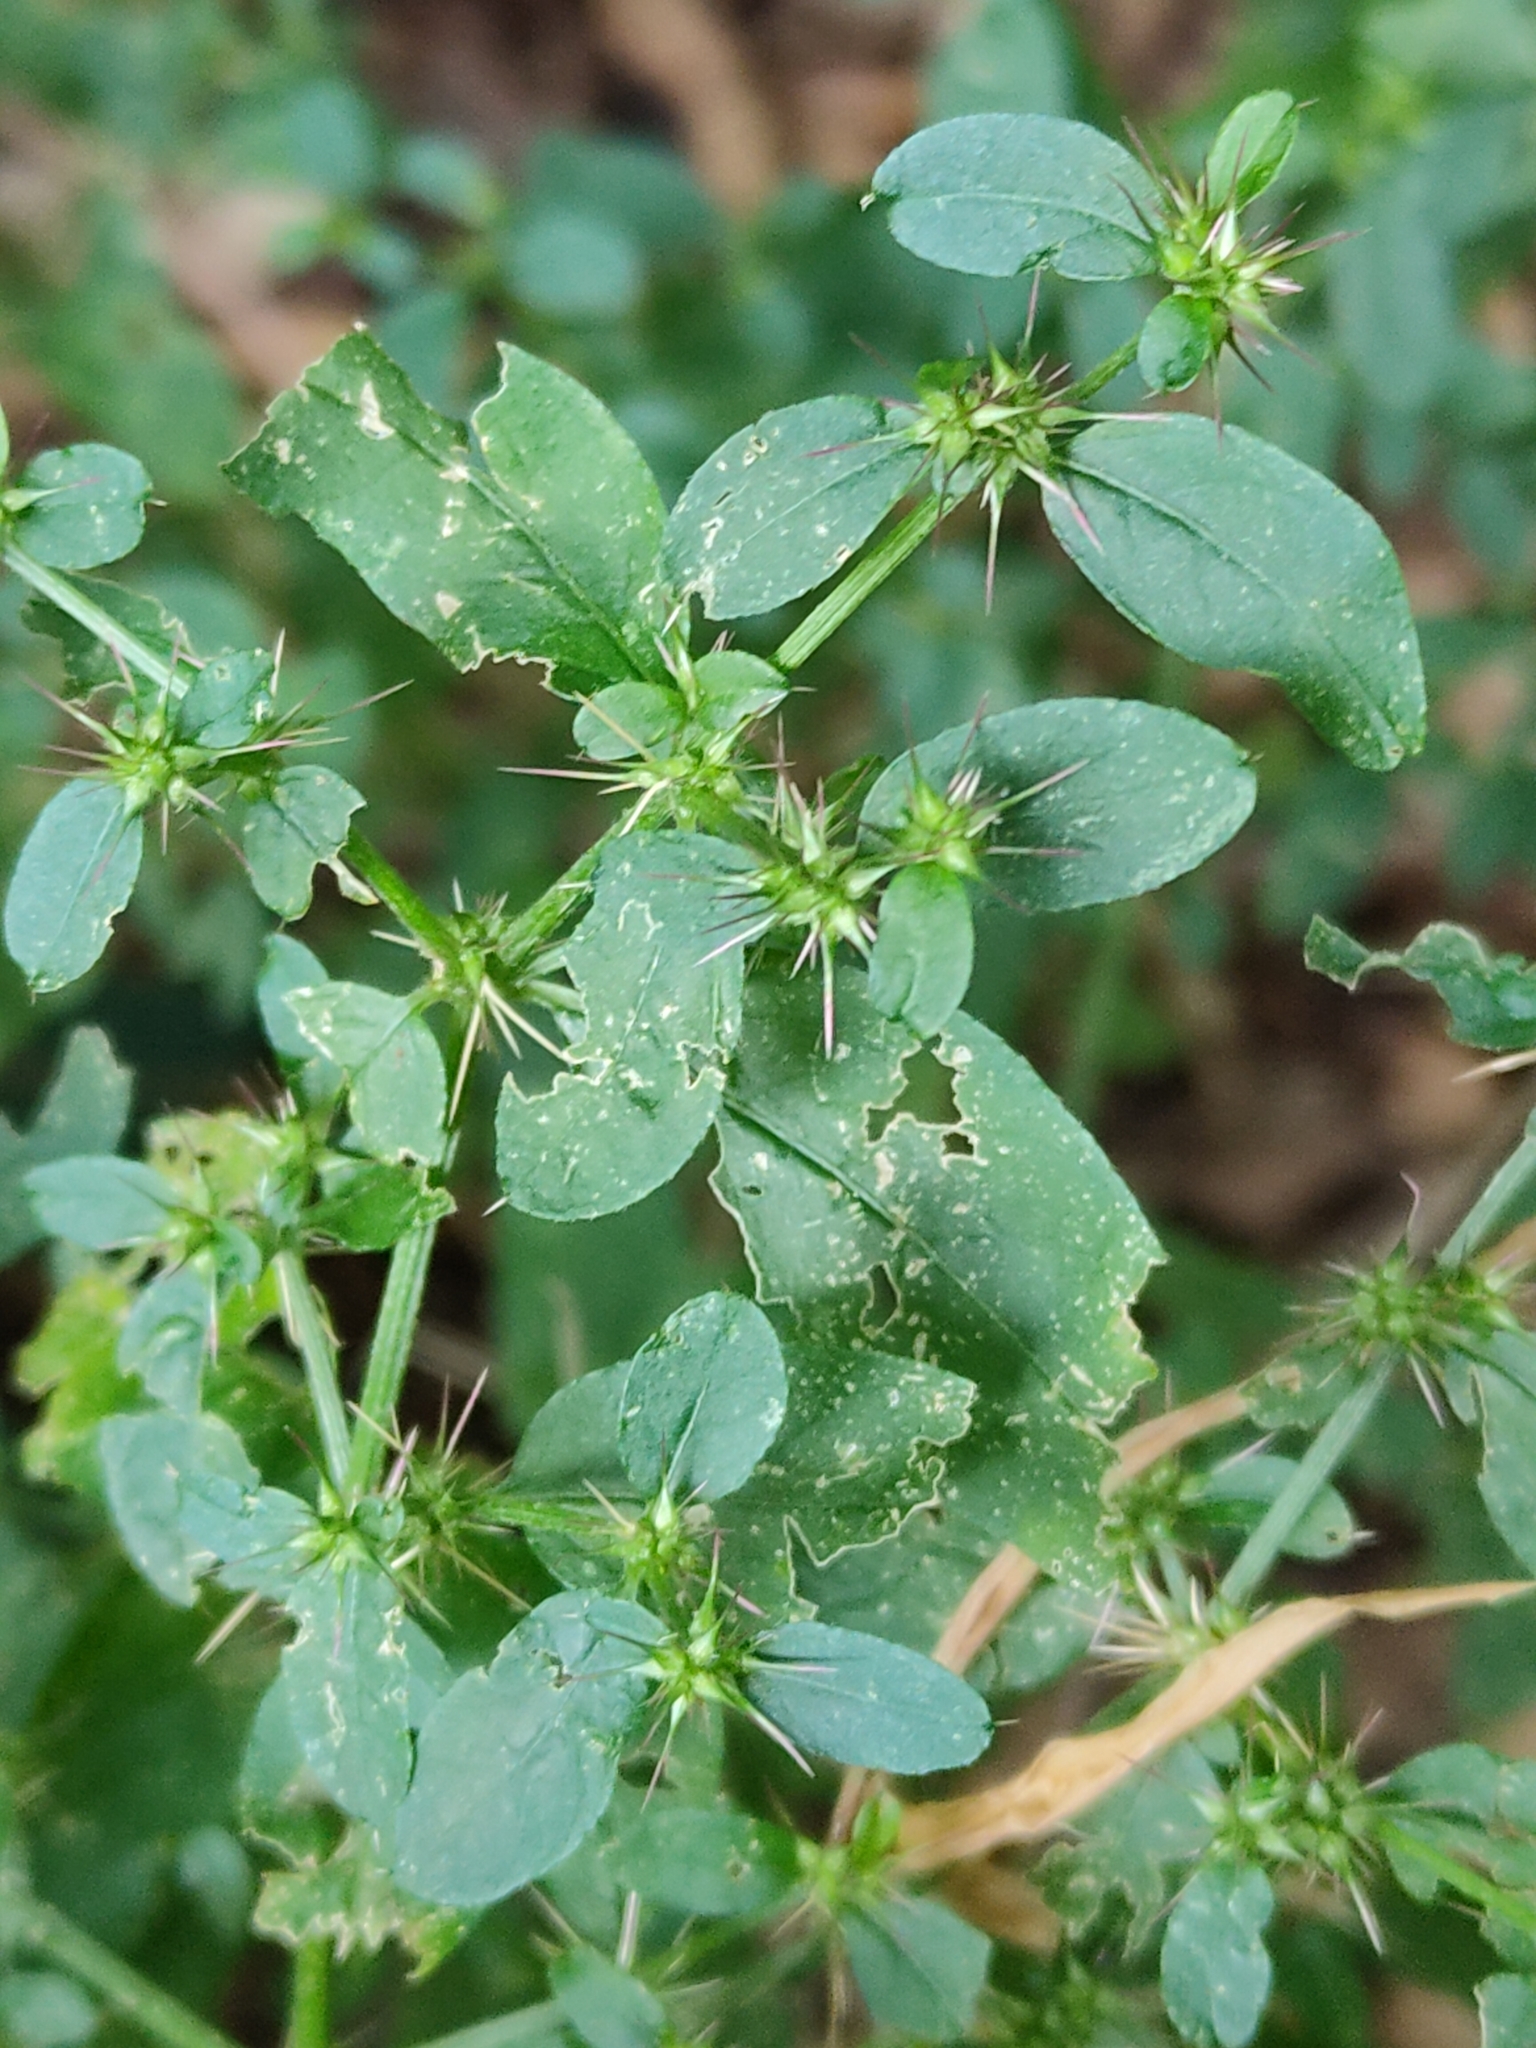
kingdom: Plantae
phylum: Tracheophyta
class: Magnoliopsida
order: Caryophyllales
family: Amaranthaceae
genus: Nyssanthes
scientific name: Nyssanthes diffusa
